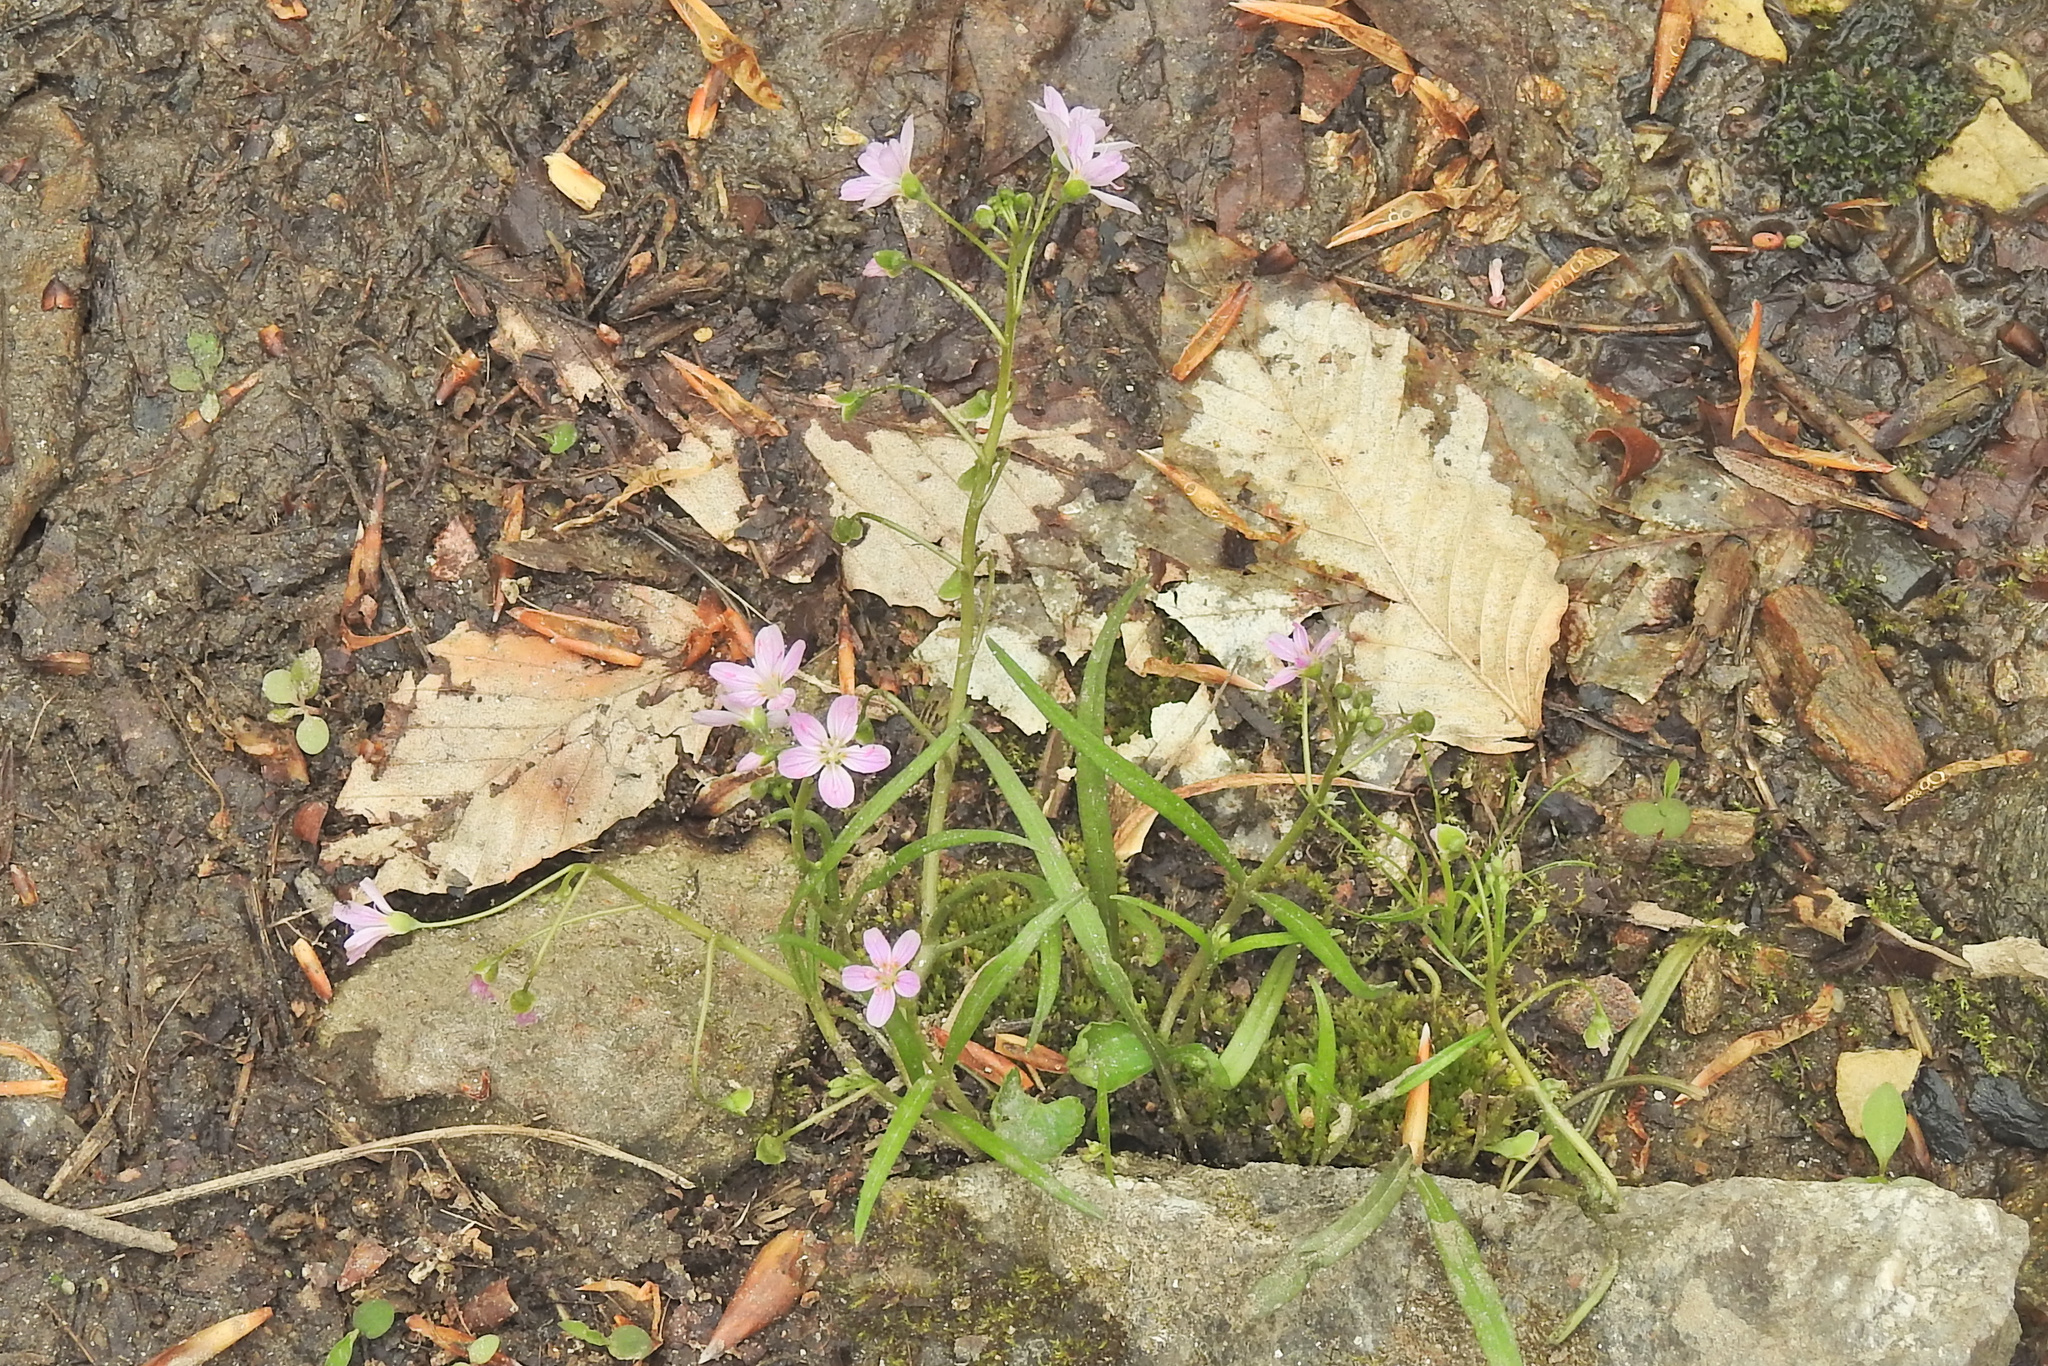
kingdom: Plantae
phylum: Tracheophyta
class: Magnoliopsida
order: Caryophyllales
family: Montiaceae
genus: Claytonia
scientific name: Claytonia virginica
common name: Virginia springbeauty
